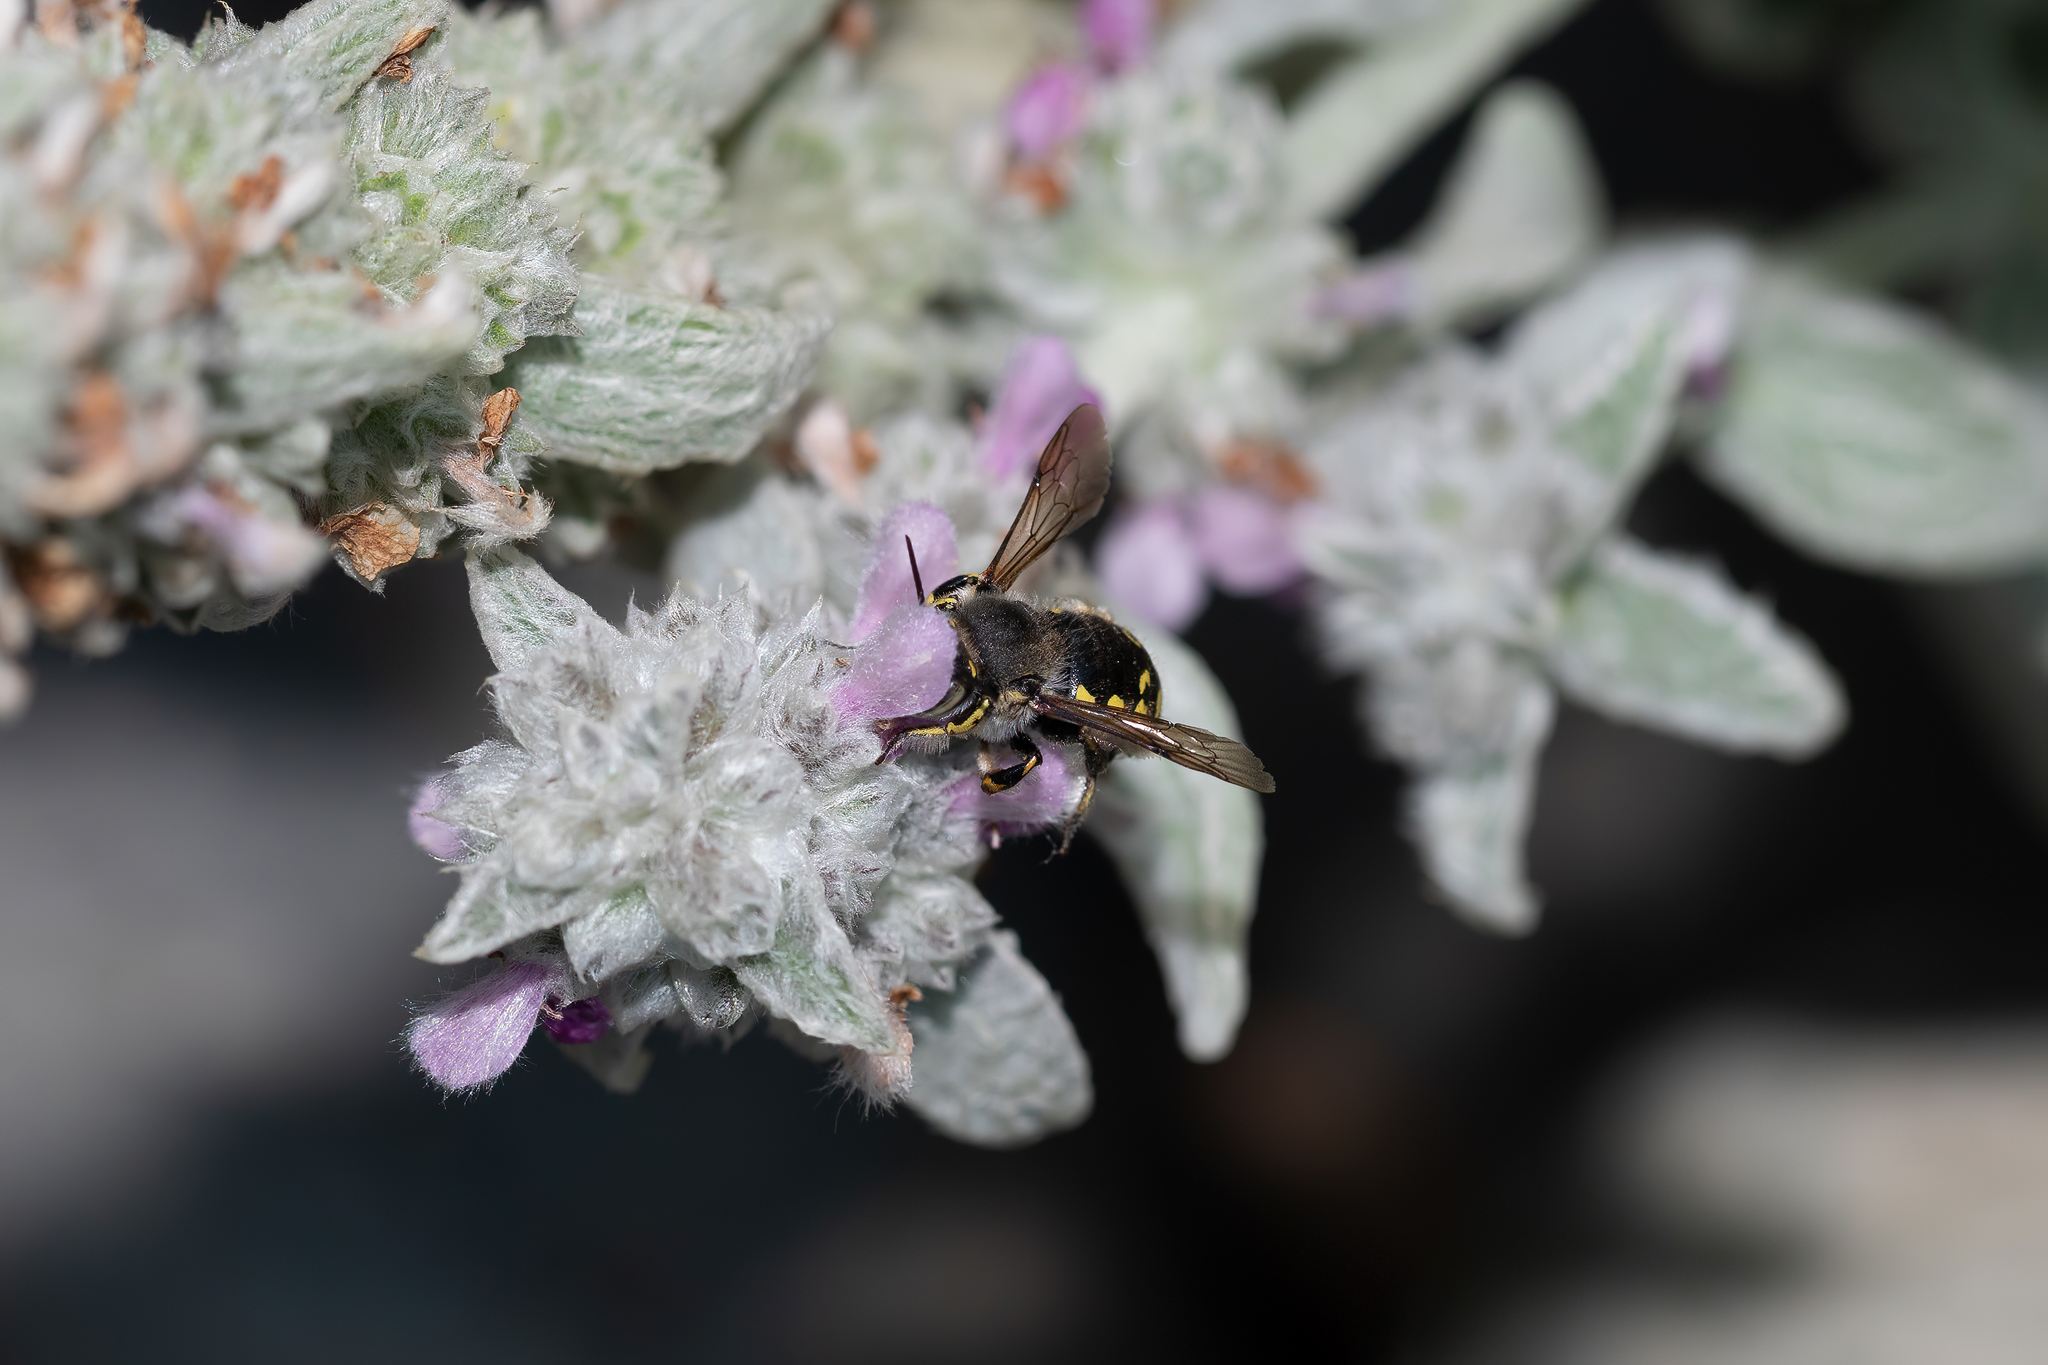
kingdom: Animalia
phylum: Arthropoda
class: Insecta
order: Hymenoptera
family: Megachilidae
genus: Anthidium
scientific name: Anthidium manicatum
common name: Wool carder bee
